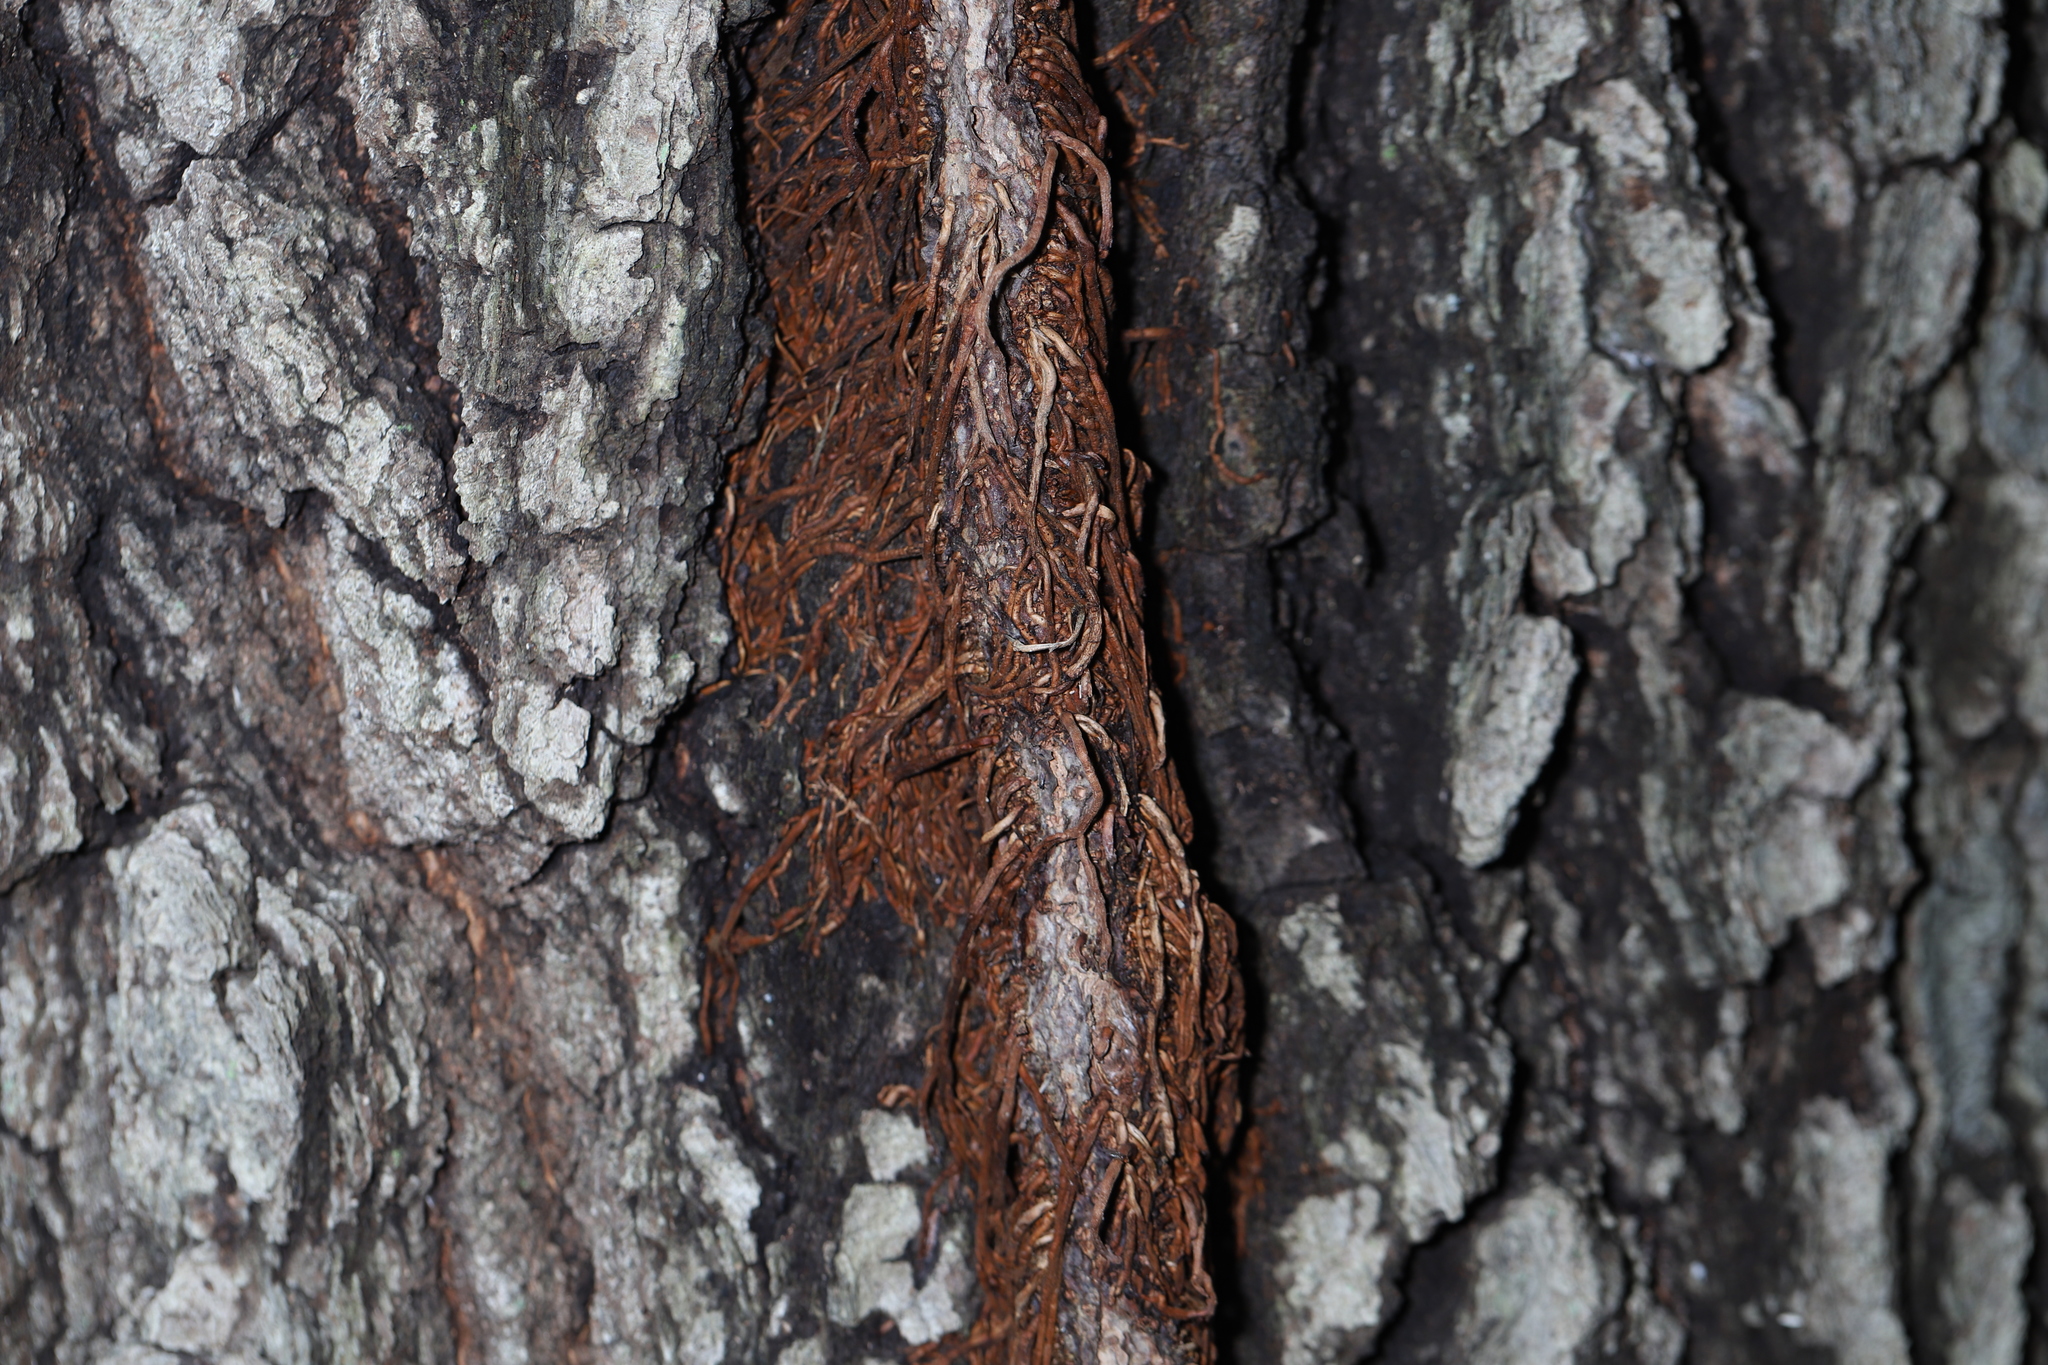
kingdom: Plantae
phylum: Tracheophyta
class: Magnoliopsida
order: Sapindales
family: Anacardiaceae
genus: Toxicodendron
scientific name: Toxicodendron radicans
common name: Poison ivy
